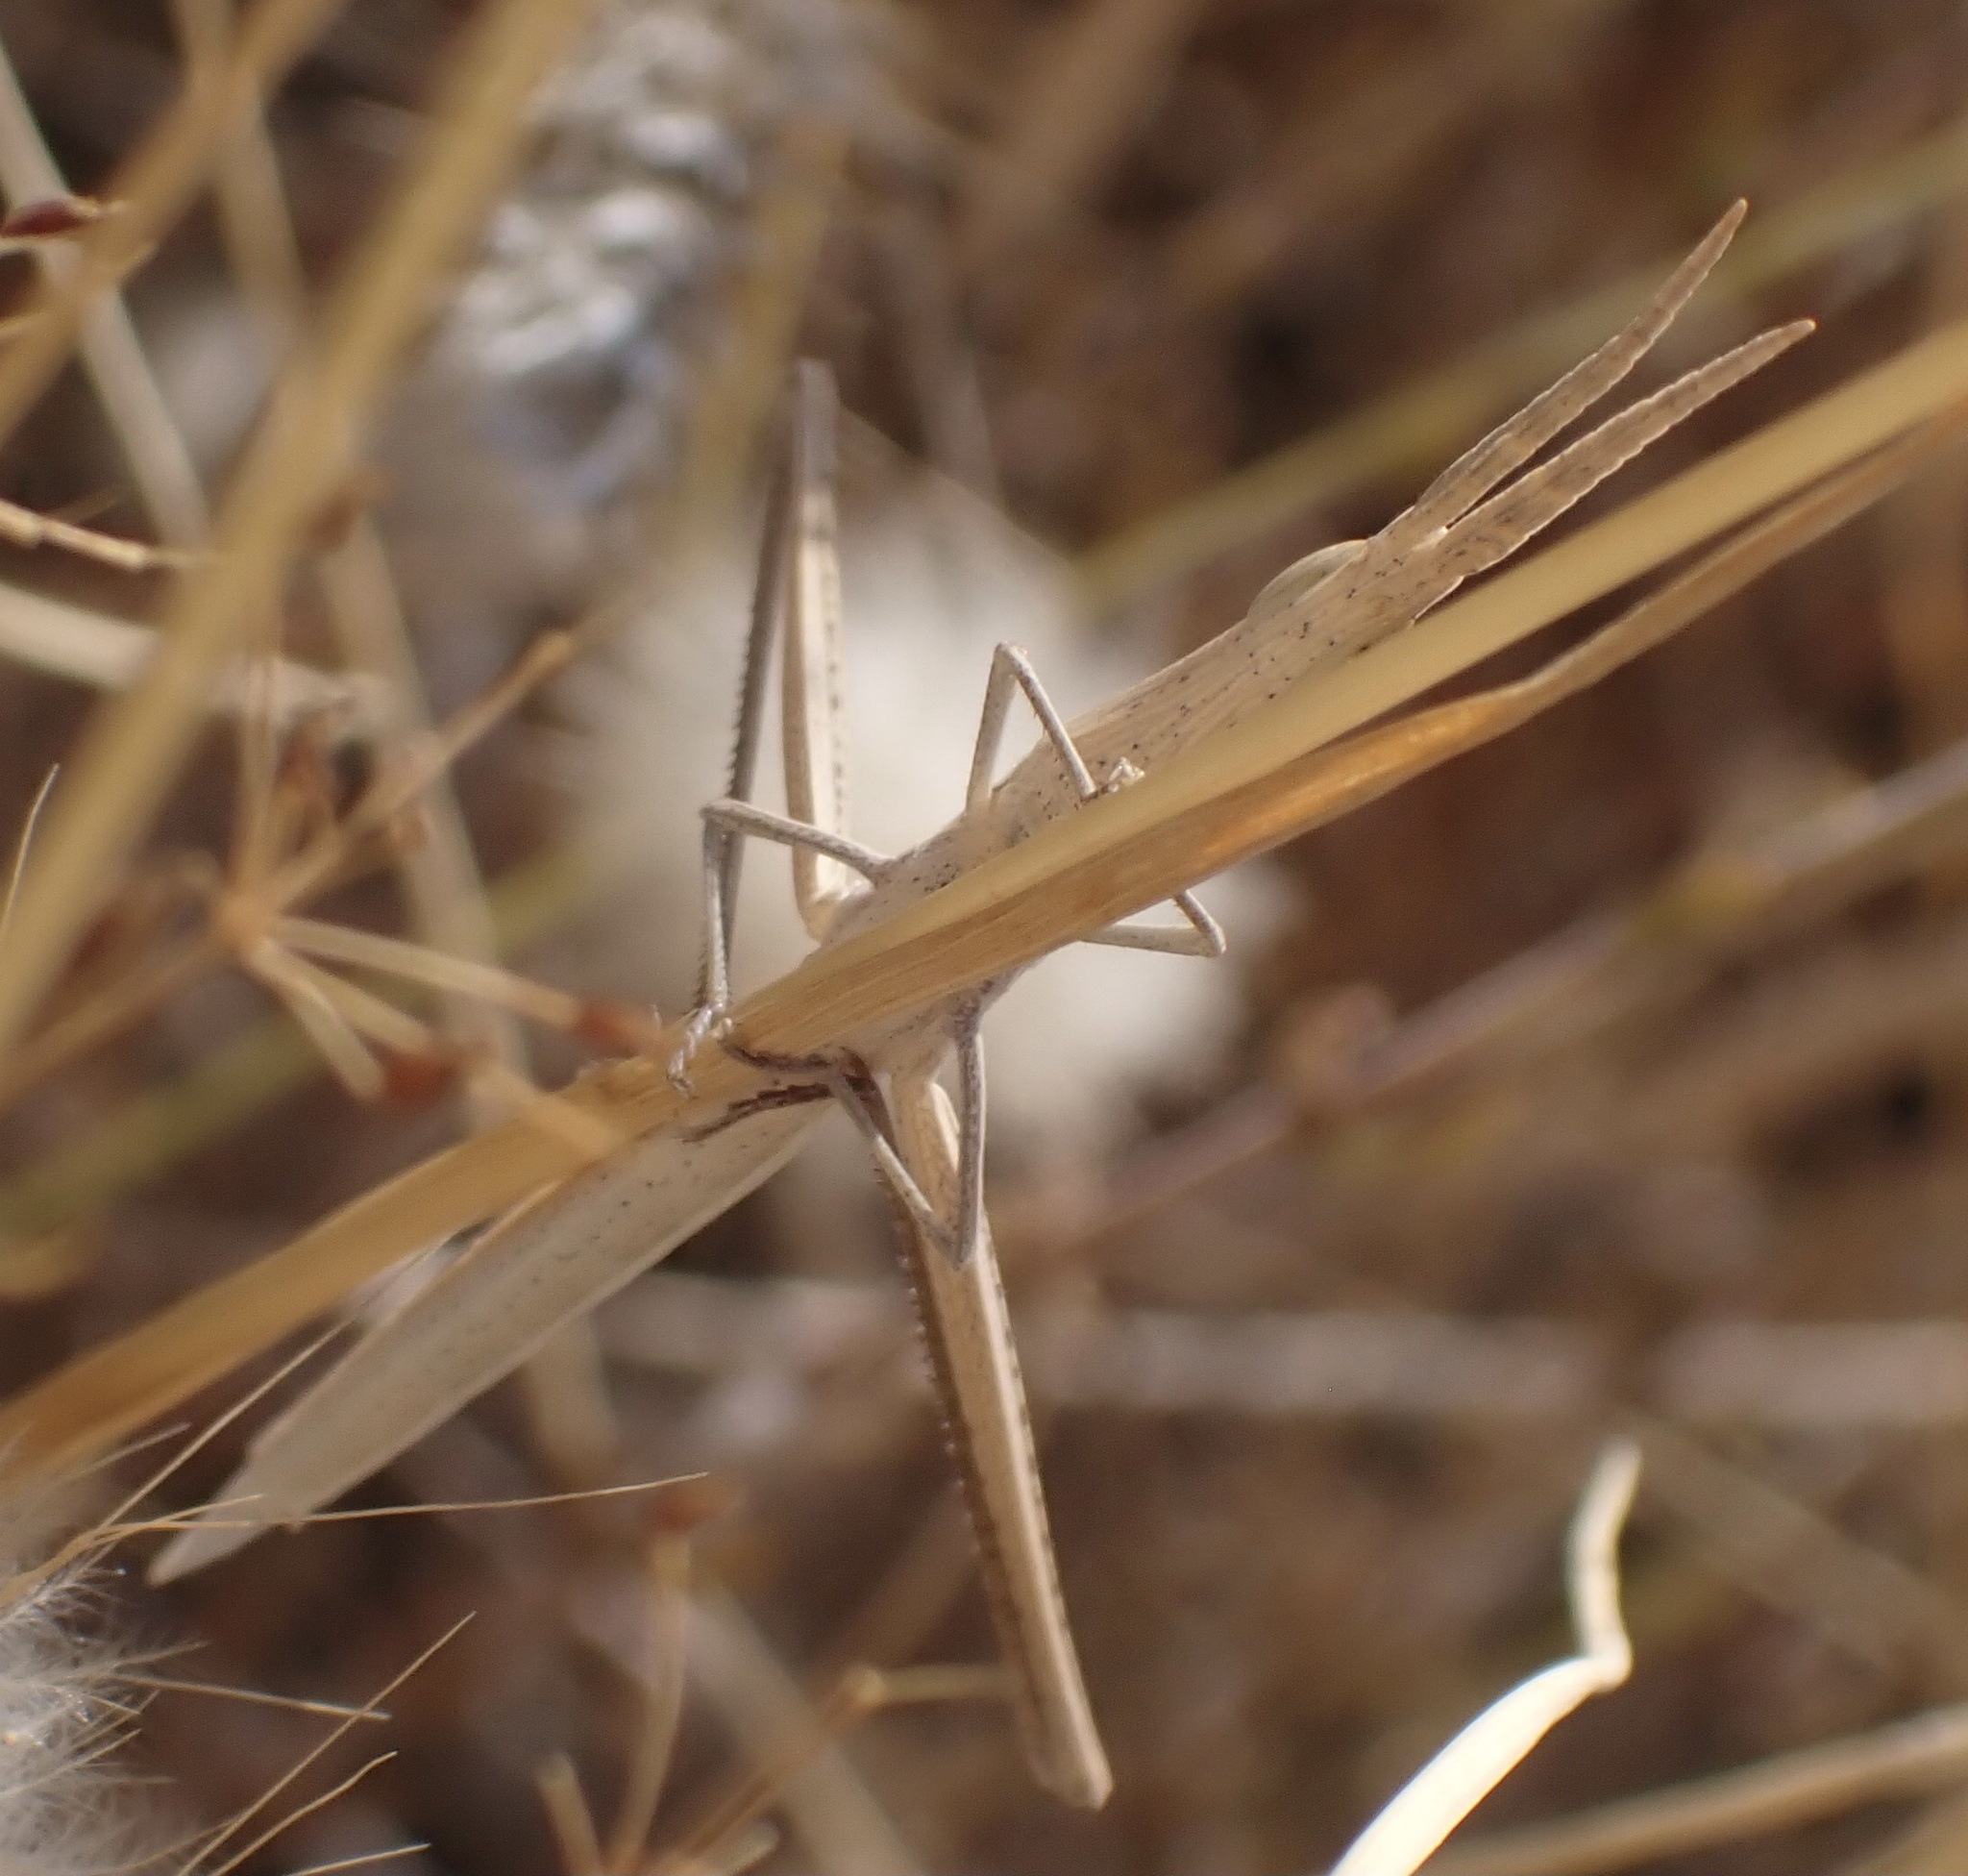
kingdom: Animalia
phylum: Arthropoda
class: Insecta
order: Orthoptera
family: Acrididae
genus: Acrida
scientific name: Acrida ungarica
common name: Common cone-headed grasshopper
